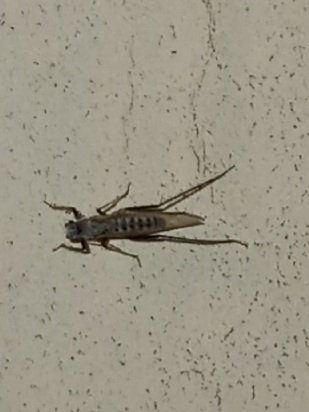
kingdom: Animalia
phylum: Arthropoda
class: Insecta
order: Hemiptera
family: Aphididae
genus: Eulachnus
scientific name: Eulachnus rileyi
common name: Active gray pine needle aphid
